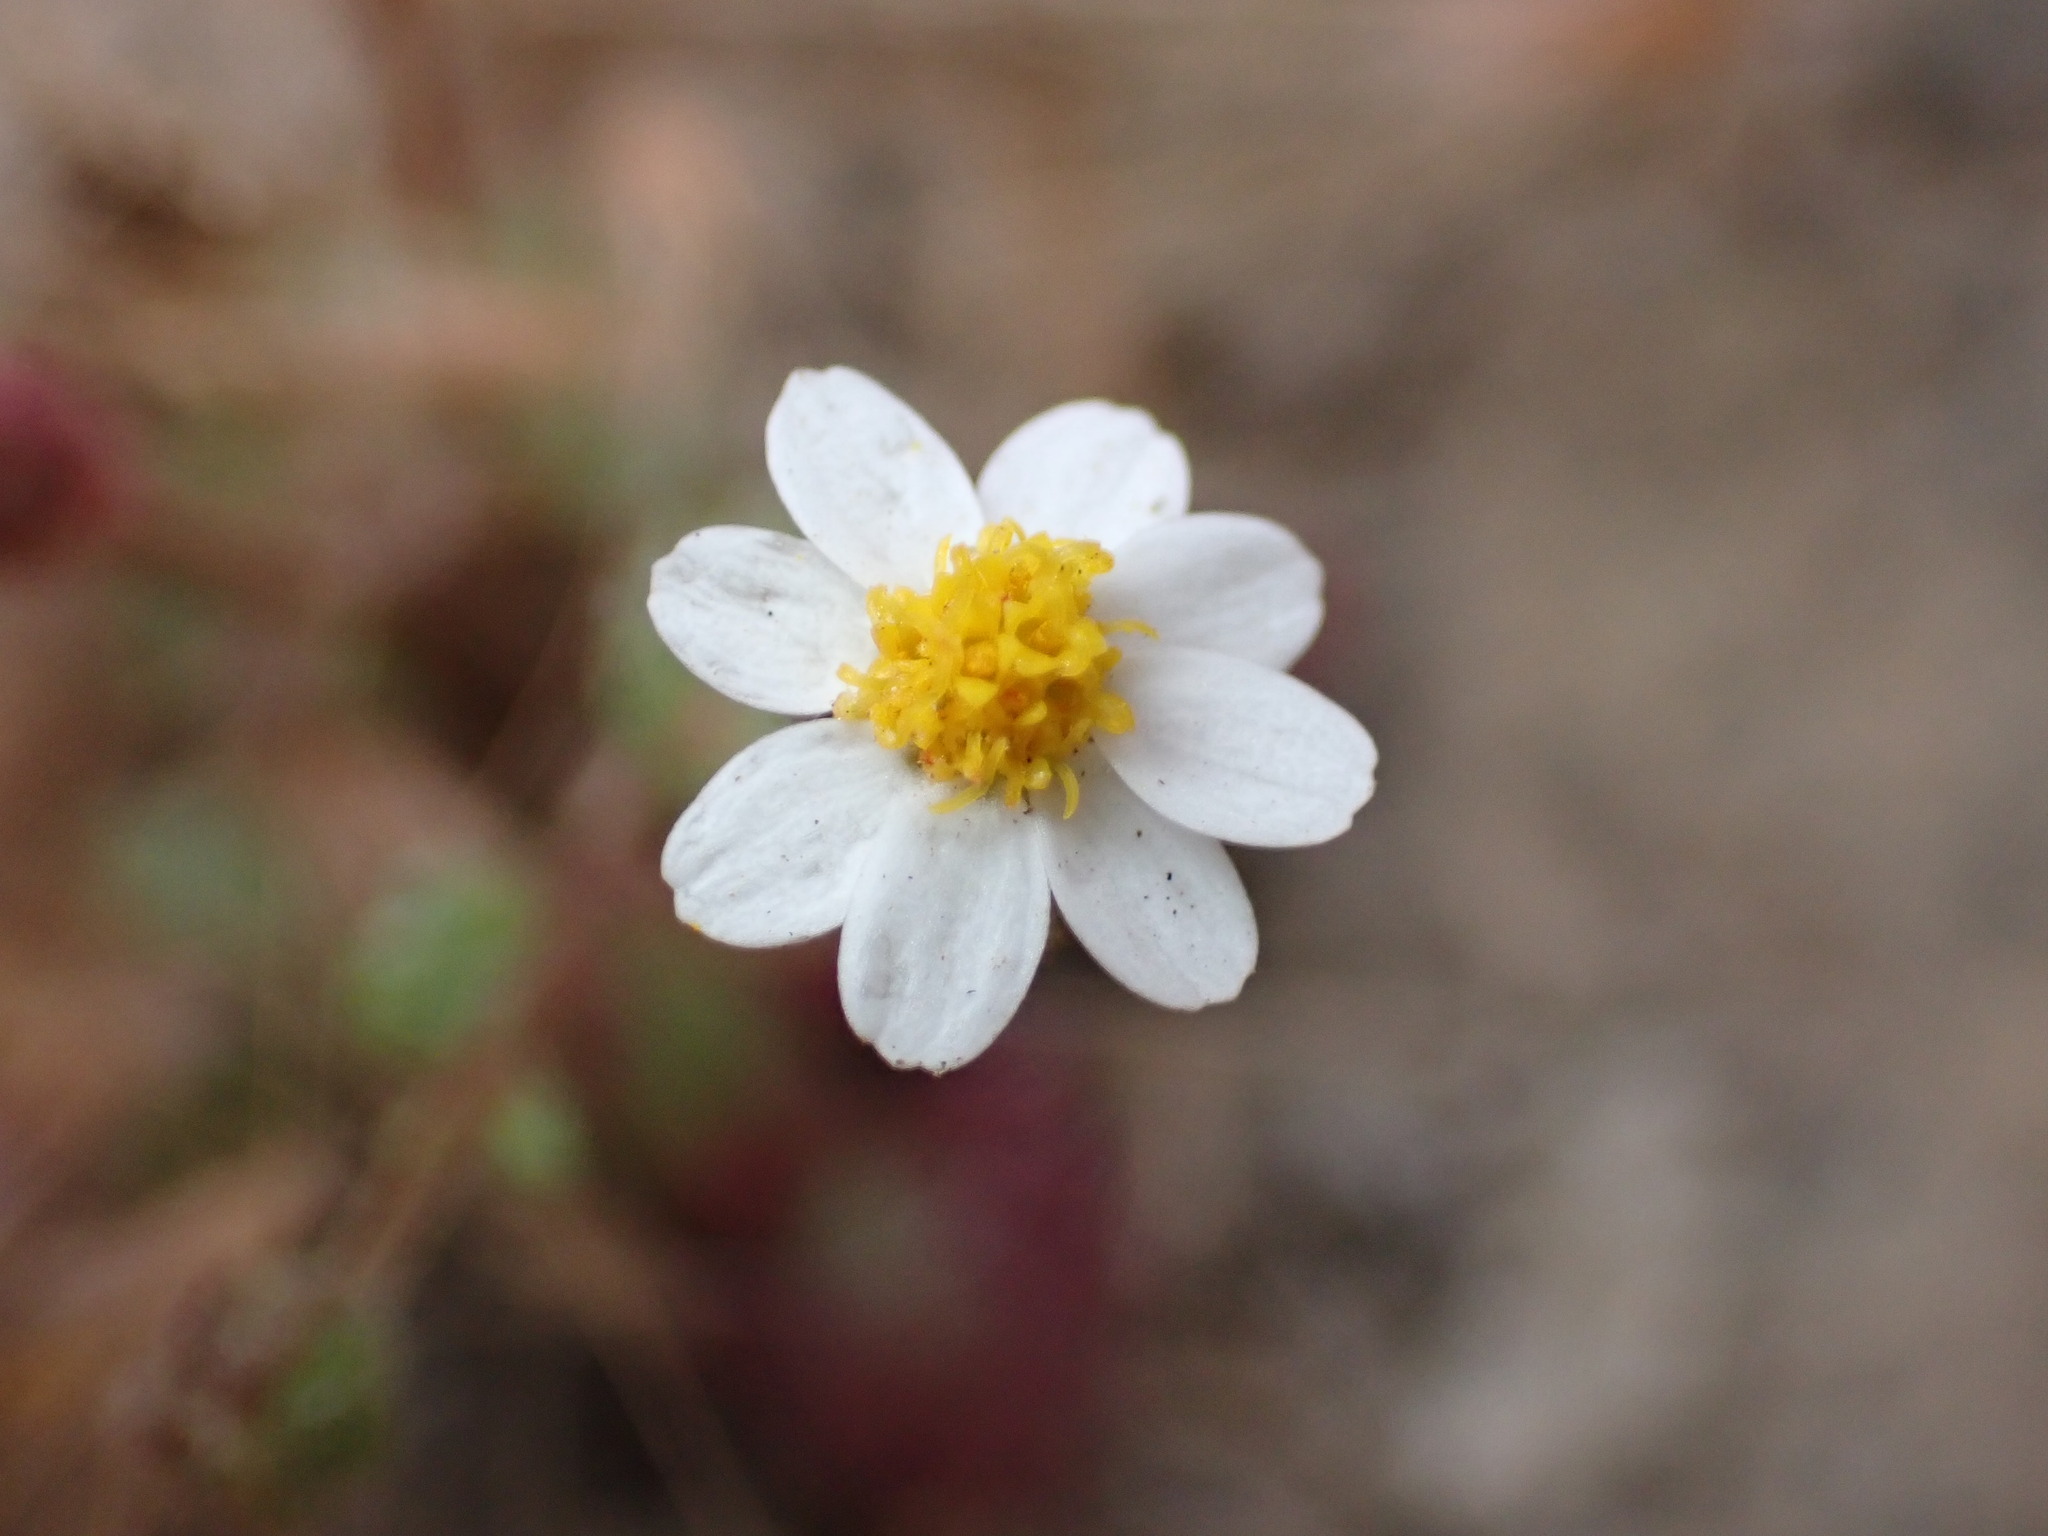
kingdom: Plantae
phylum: Tracheophyta
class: Magnoliopsida
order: Asterales
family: Asteraceae
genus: Laphamia
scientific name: Laphamia emoryi
